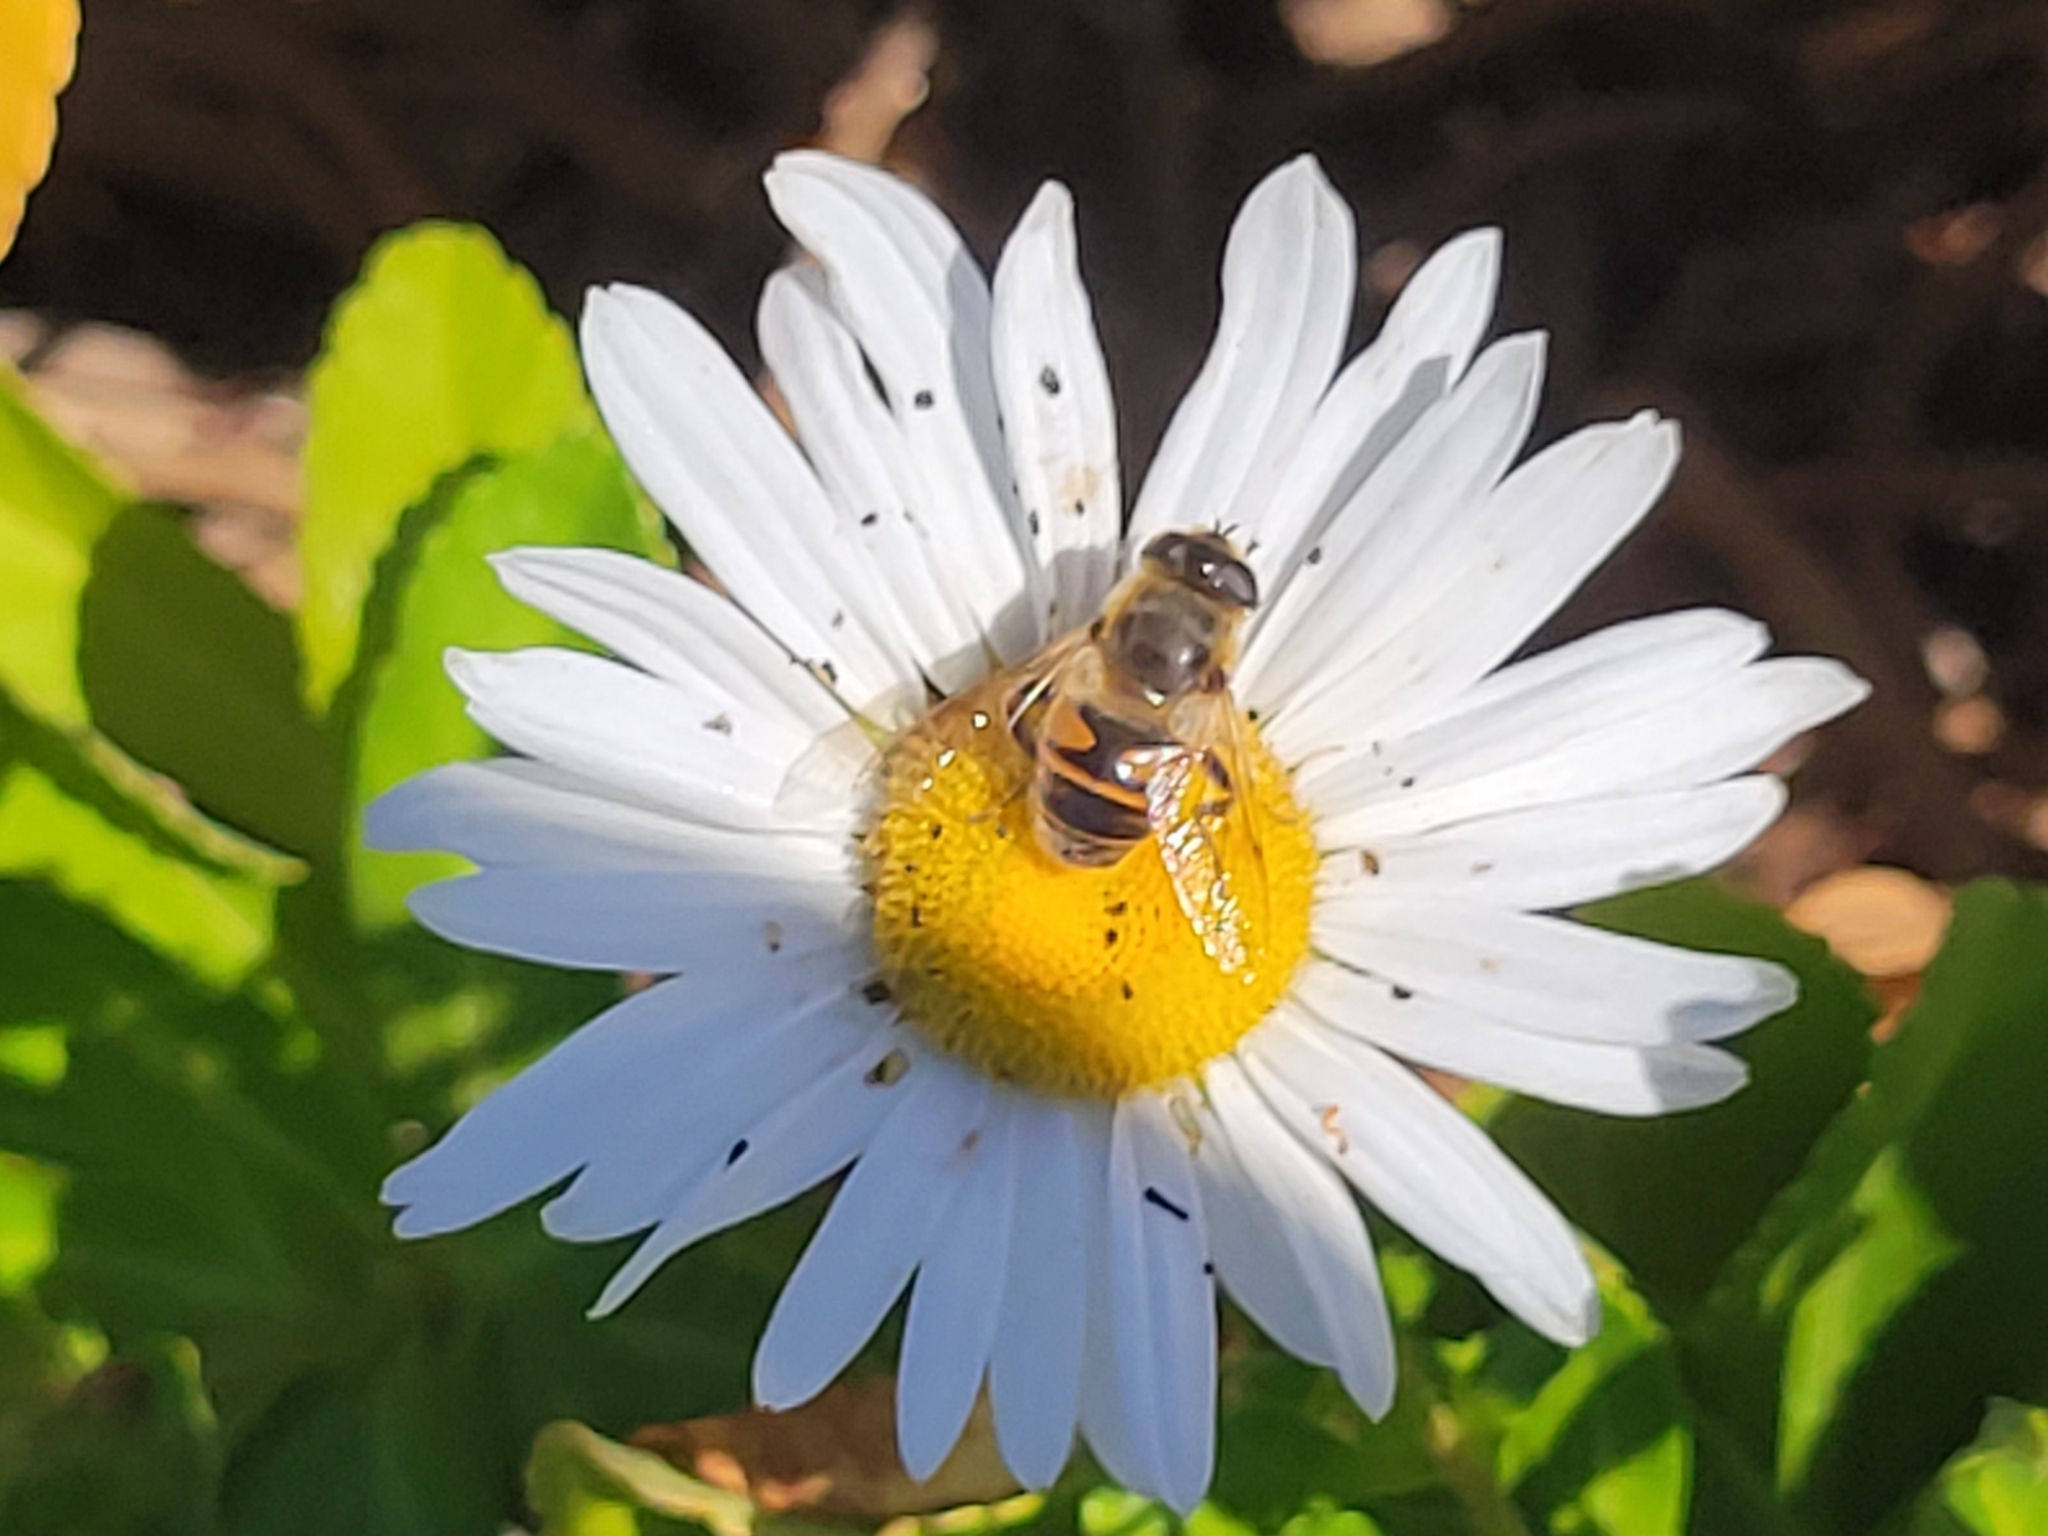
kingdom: Animalia
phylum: Arthropoda
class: Insecta
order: Diptera
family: Syrphidae
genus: Eristalis
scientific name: Eristalis tenax
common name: Drone fly
